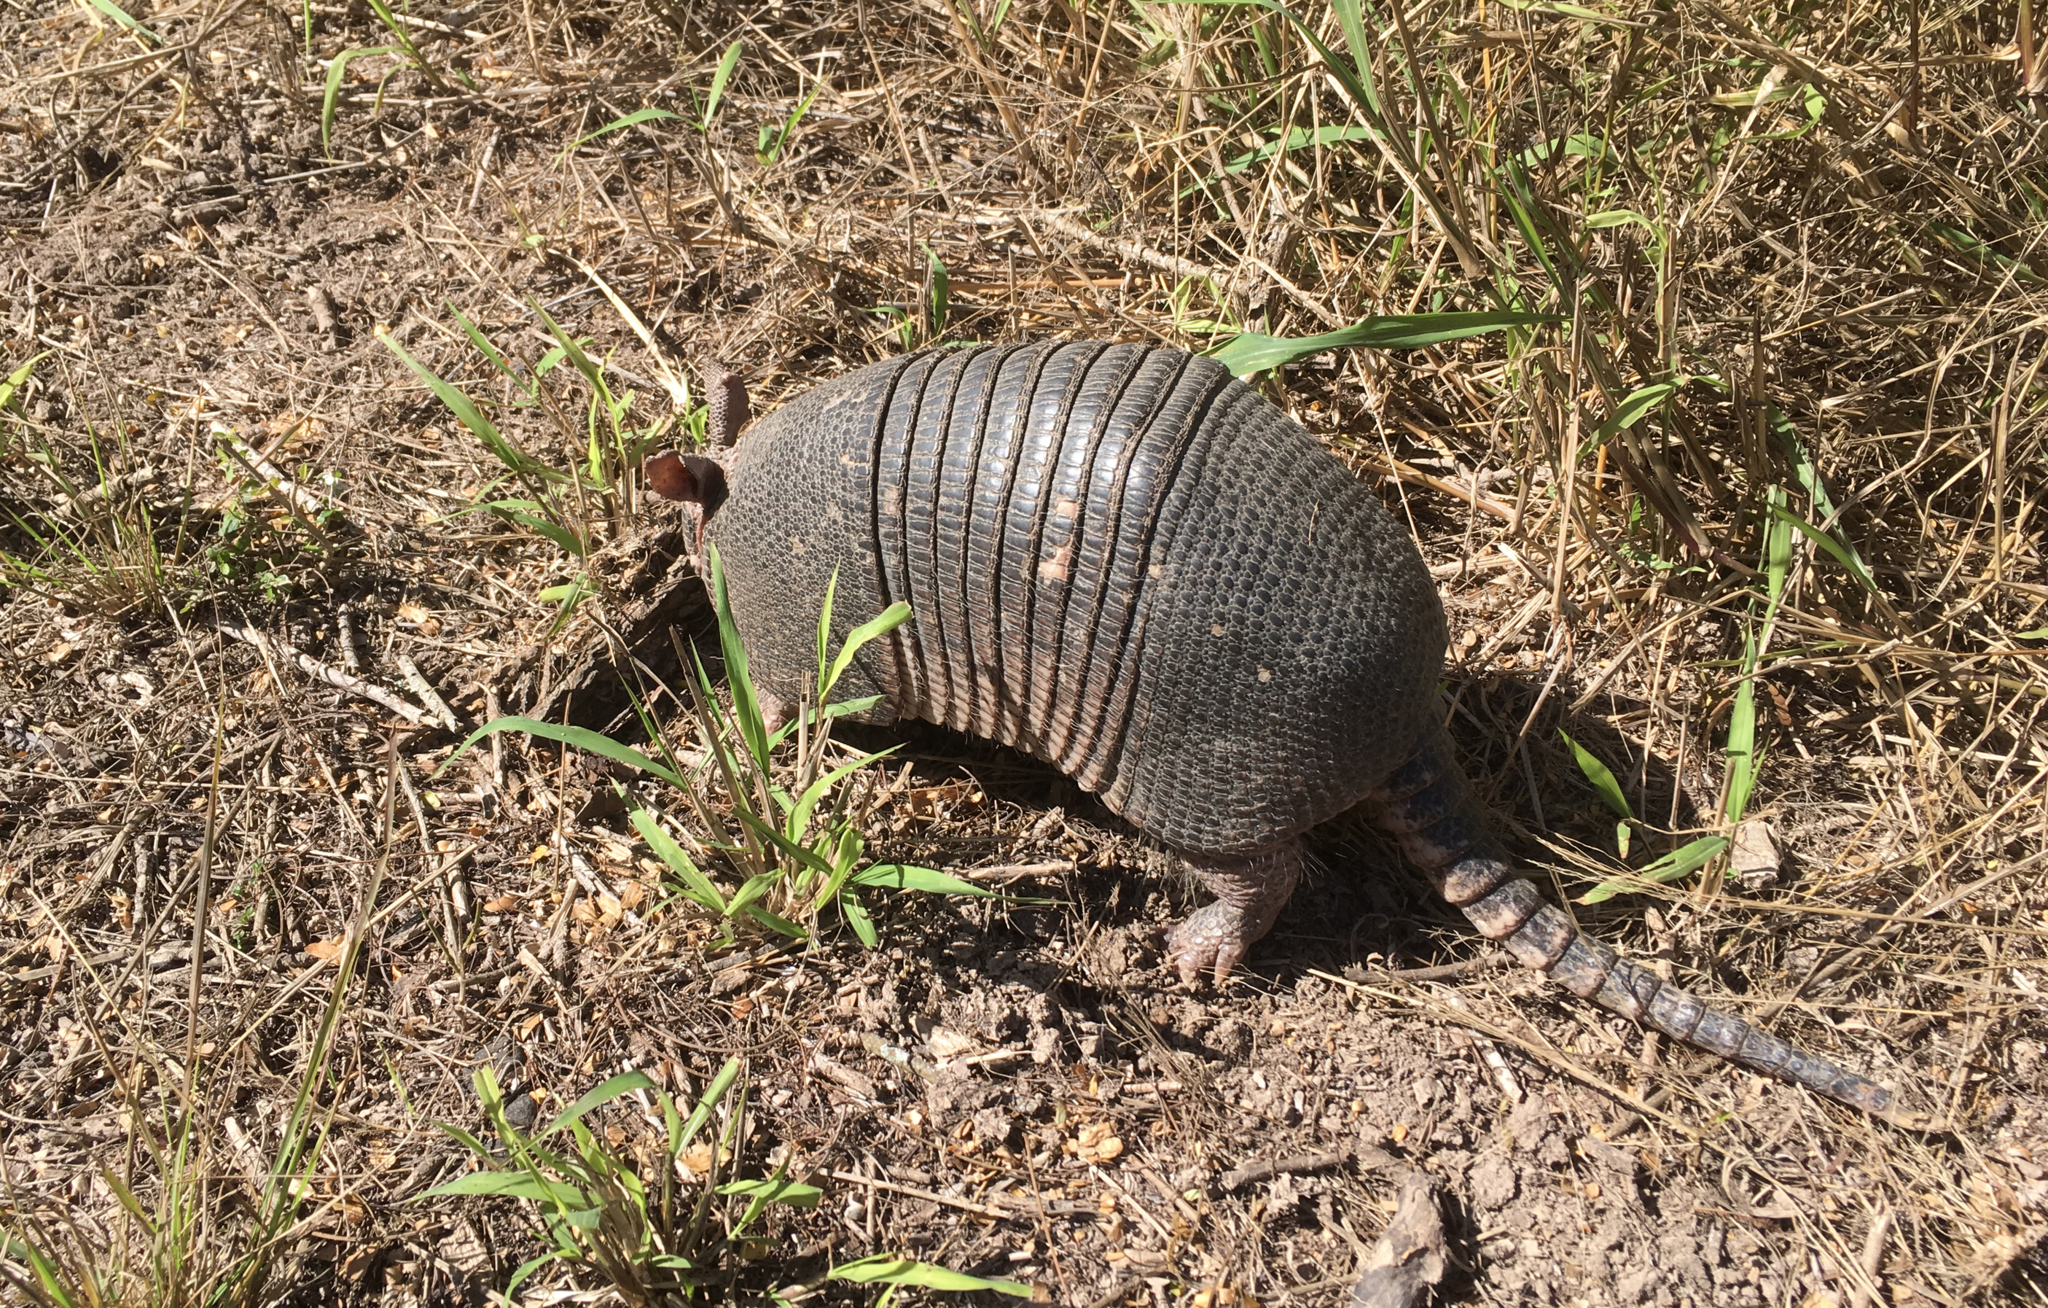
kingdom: Animalia
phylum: Chordata
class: Mammalia
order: Cingulata
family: Dasypodidae
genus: Dasypus
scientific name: Dasypus novemcinctus
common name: Nine-banded armadillo
